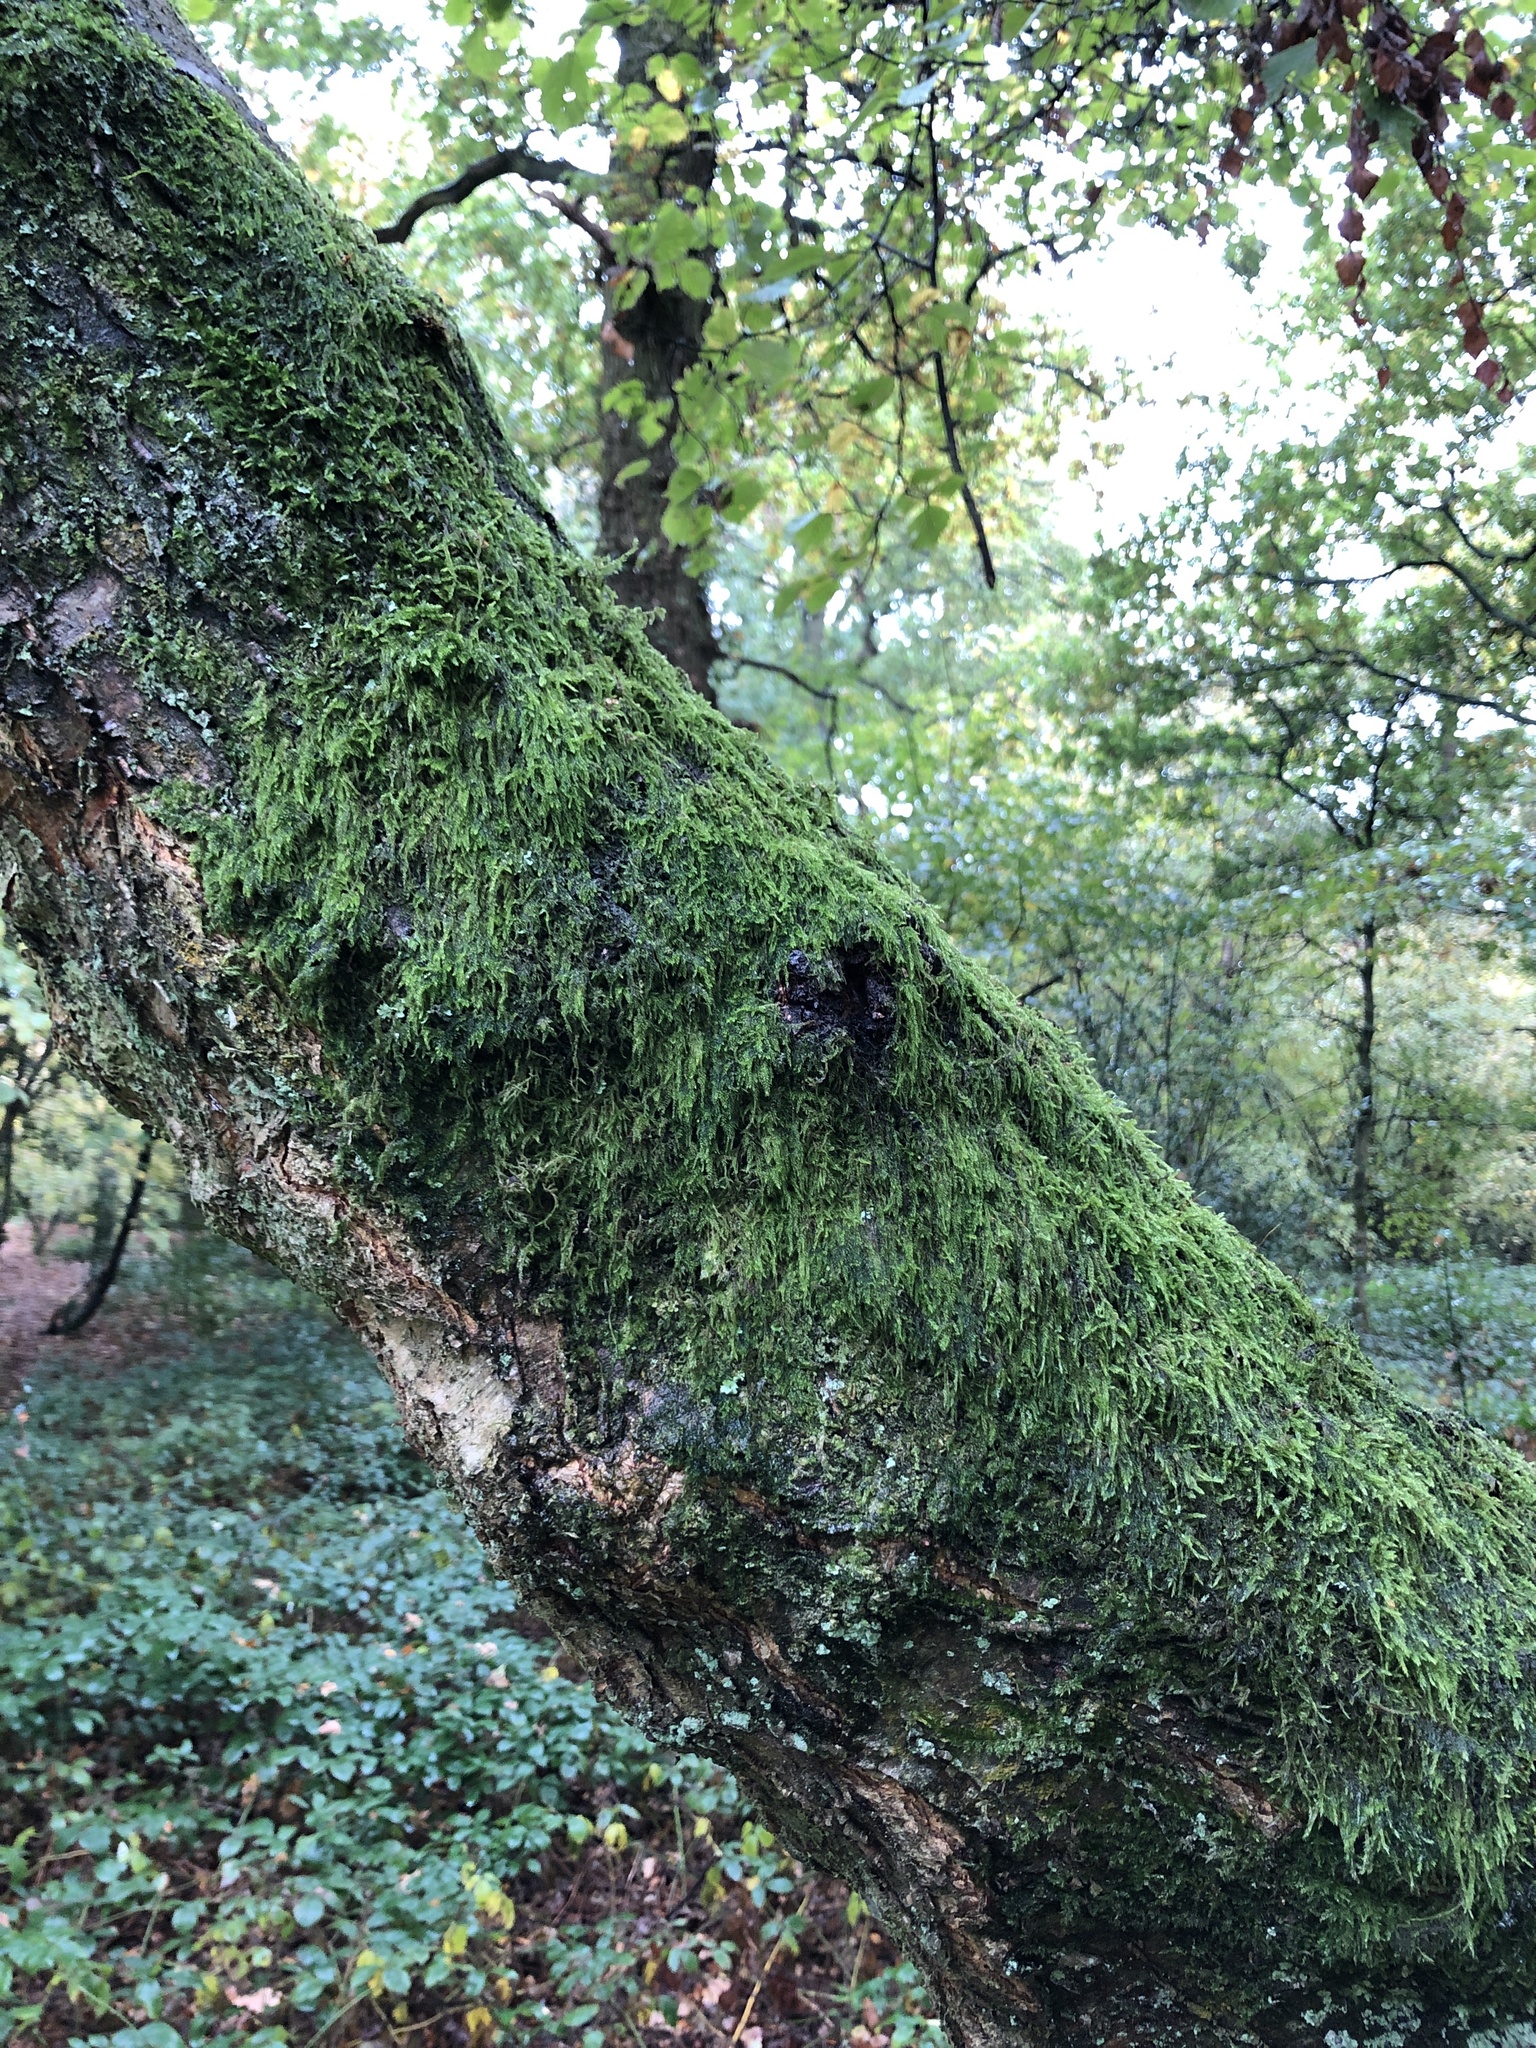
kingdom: Plantae
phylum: Bryophyta
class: Bryopsida
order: Hypnales
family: Hypnaceae
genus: Hypnum
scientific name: Hypnum cupressiforme
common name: Cypress-leaved plait-moss
